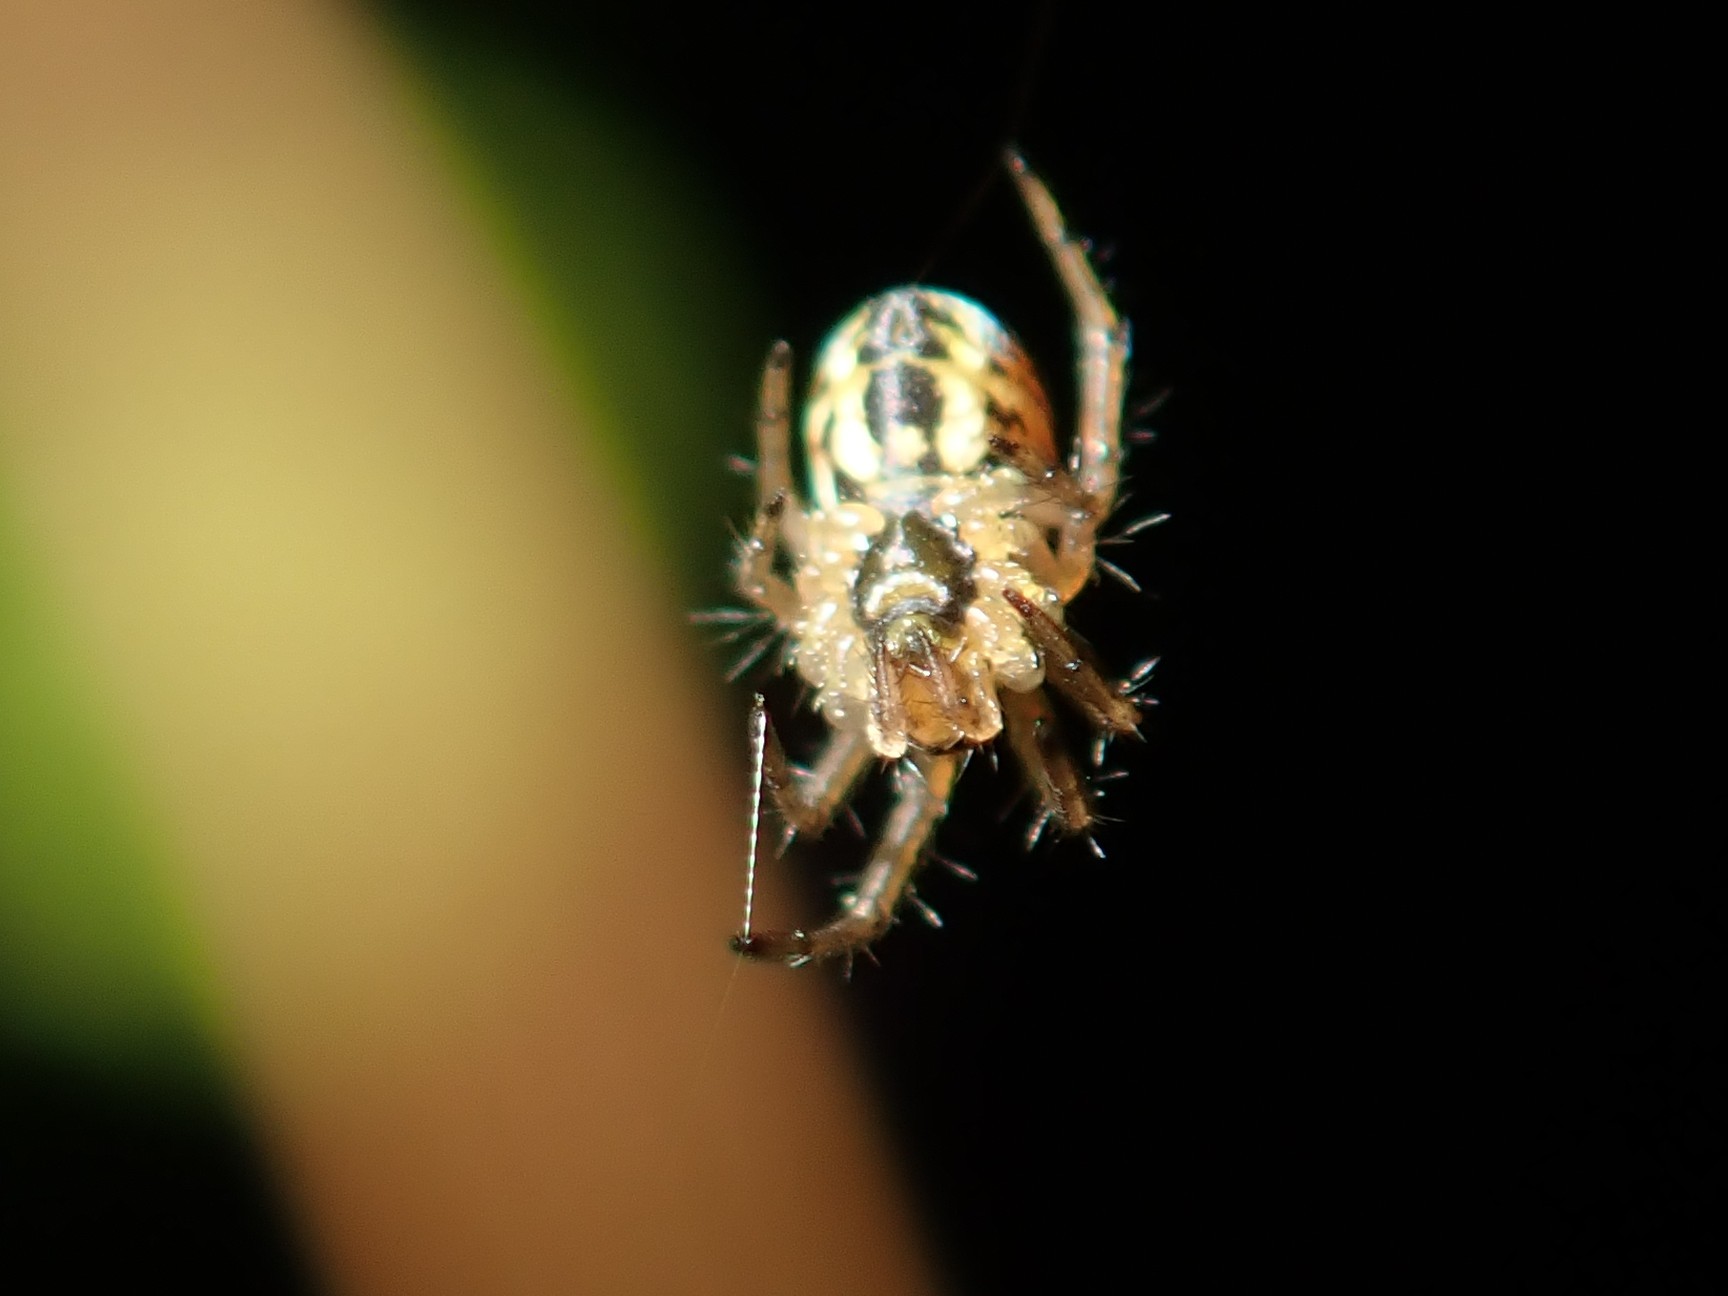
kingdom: Animalia
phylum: Arthropoda
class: Arachnida
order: Araneae
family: Araneidae
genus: Mangora
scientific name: Mangora acalypha
